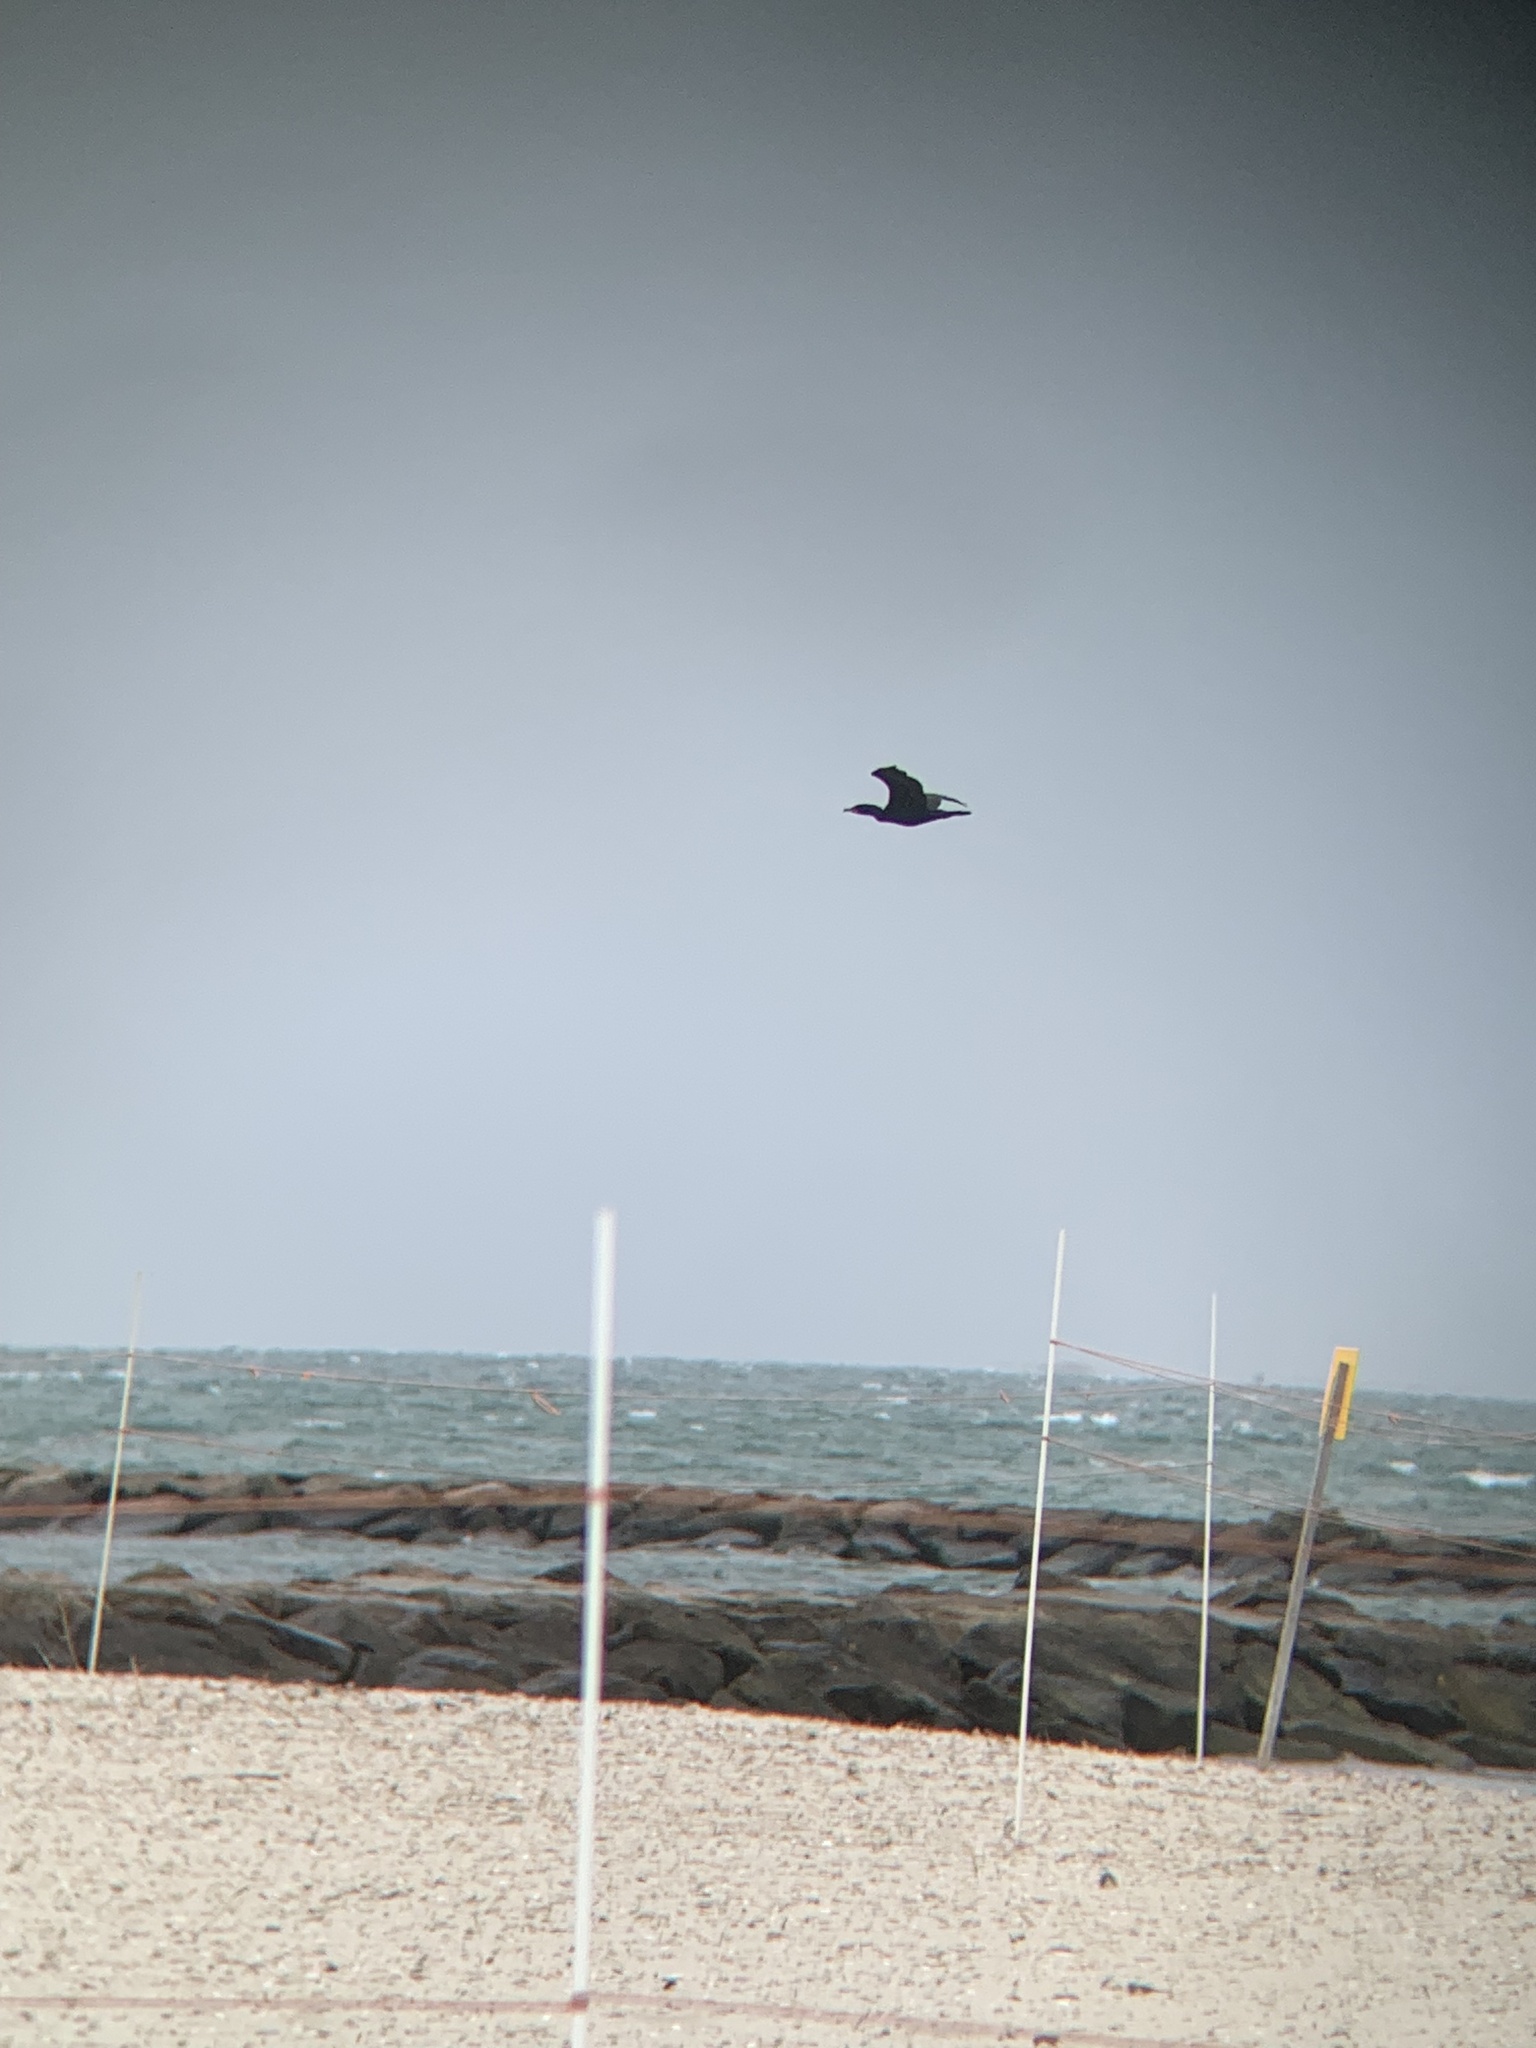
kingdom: Animalia
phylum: Chordata
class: Aves
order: Suliformes
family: Phalacrocoracidae
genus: Phalacrocorax
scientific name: Phalacrocorax auritus
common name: Double-crested cormorant
